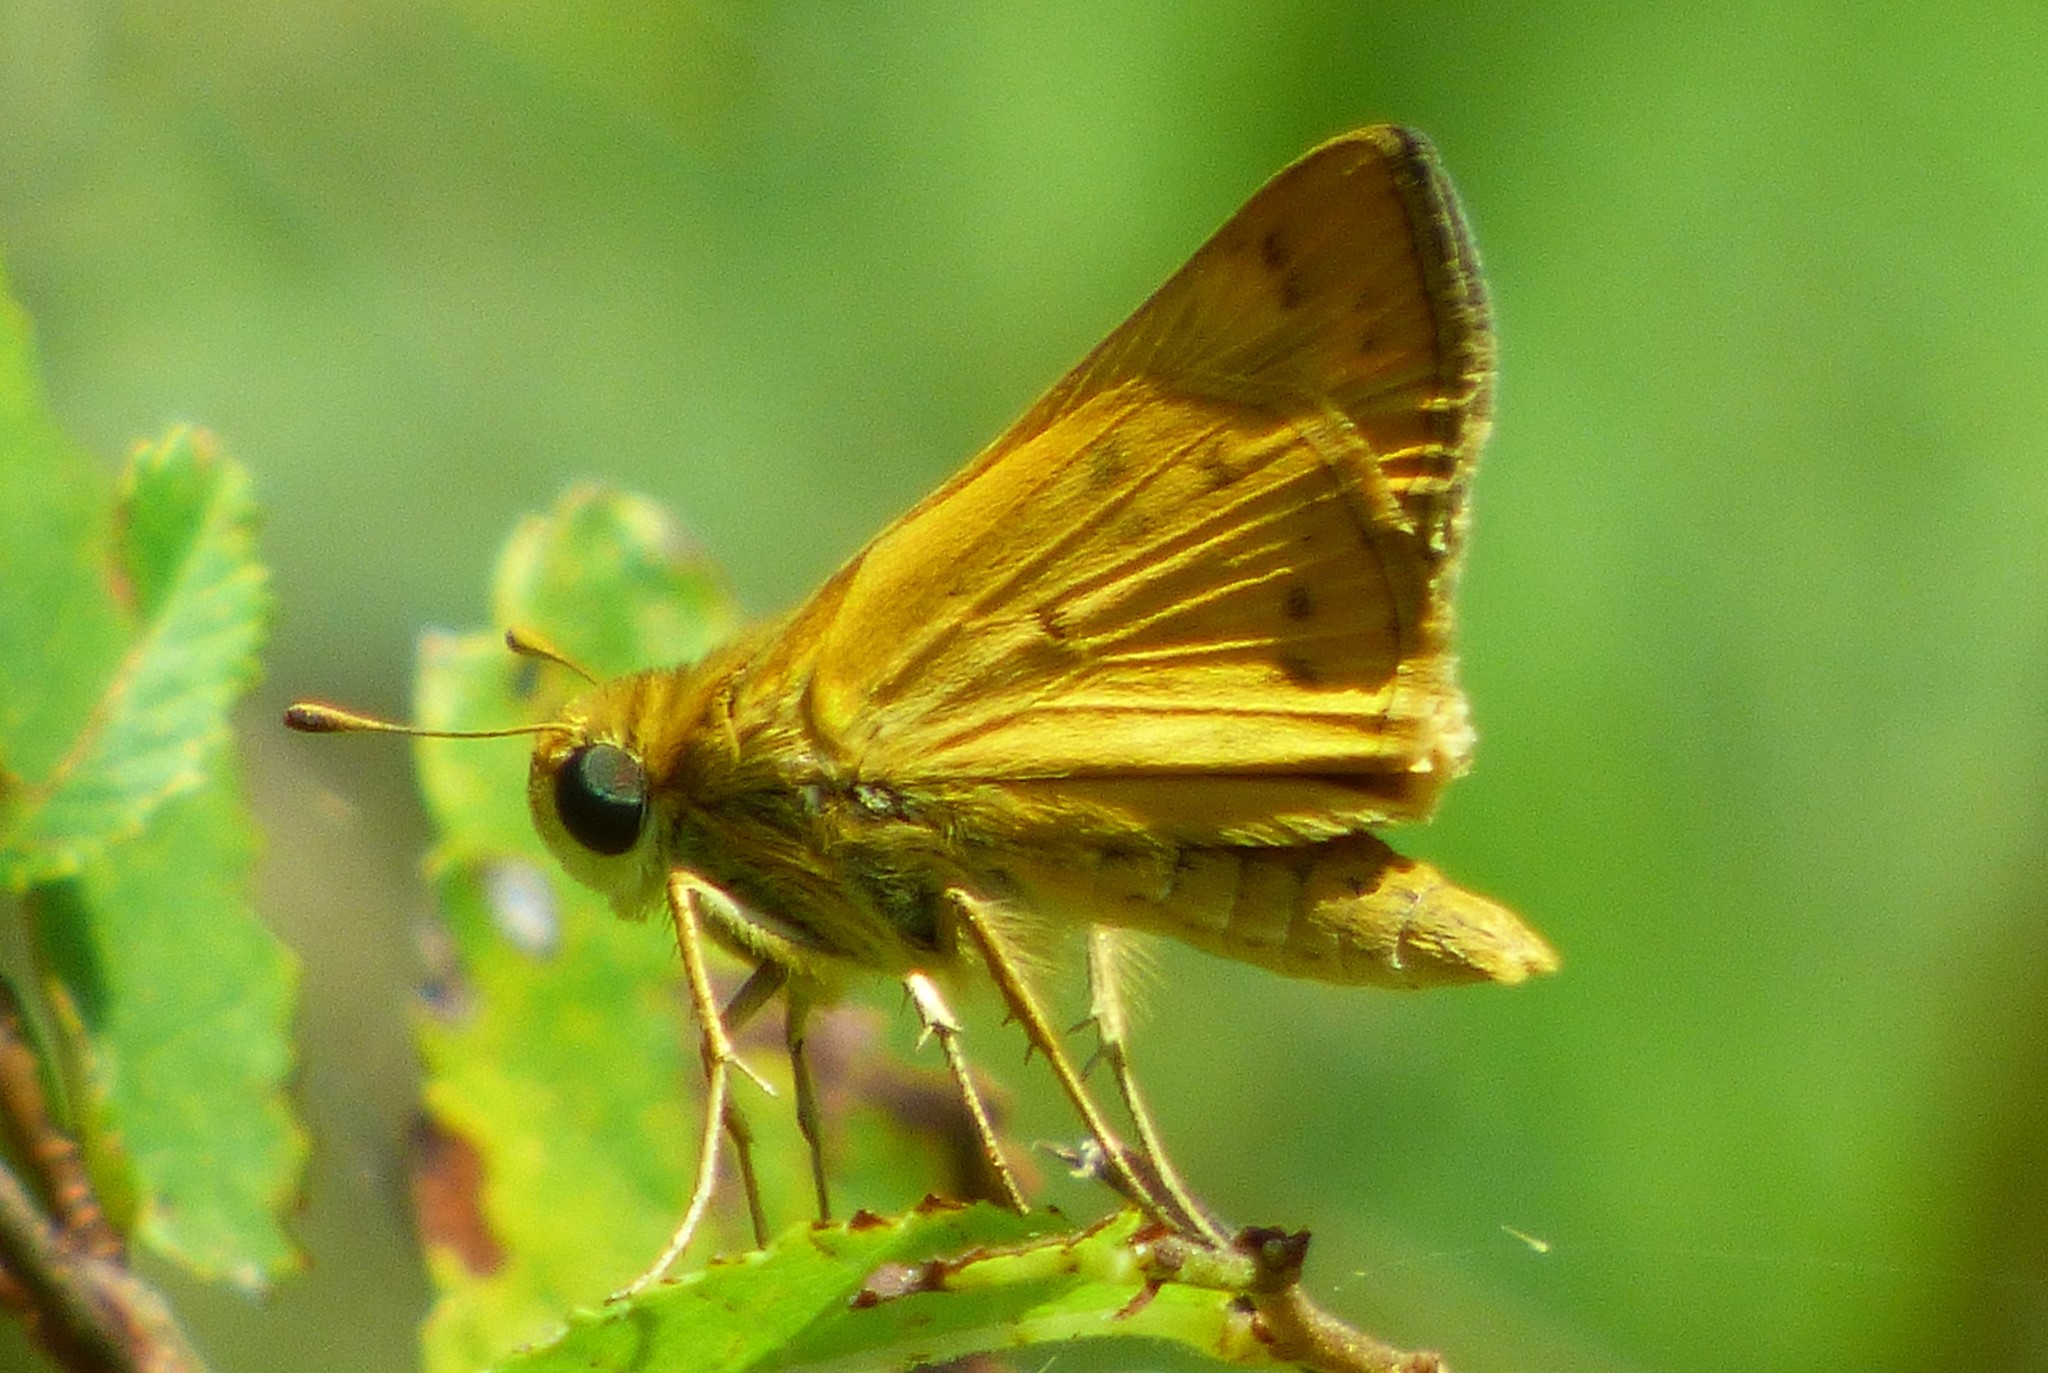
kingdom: Animalia
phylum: Arthropoda
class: Insecta
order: Lepidoptera
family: Hesperiidae
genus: Hylephila
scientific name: Hylephila phyleus
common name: Fiery skipper
